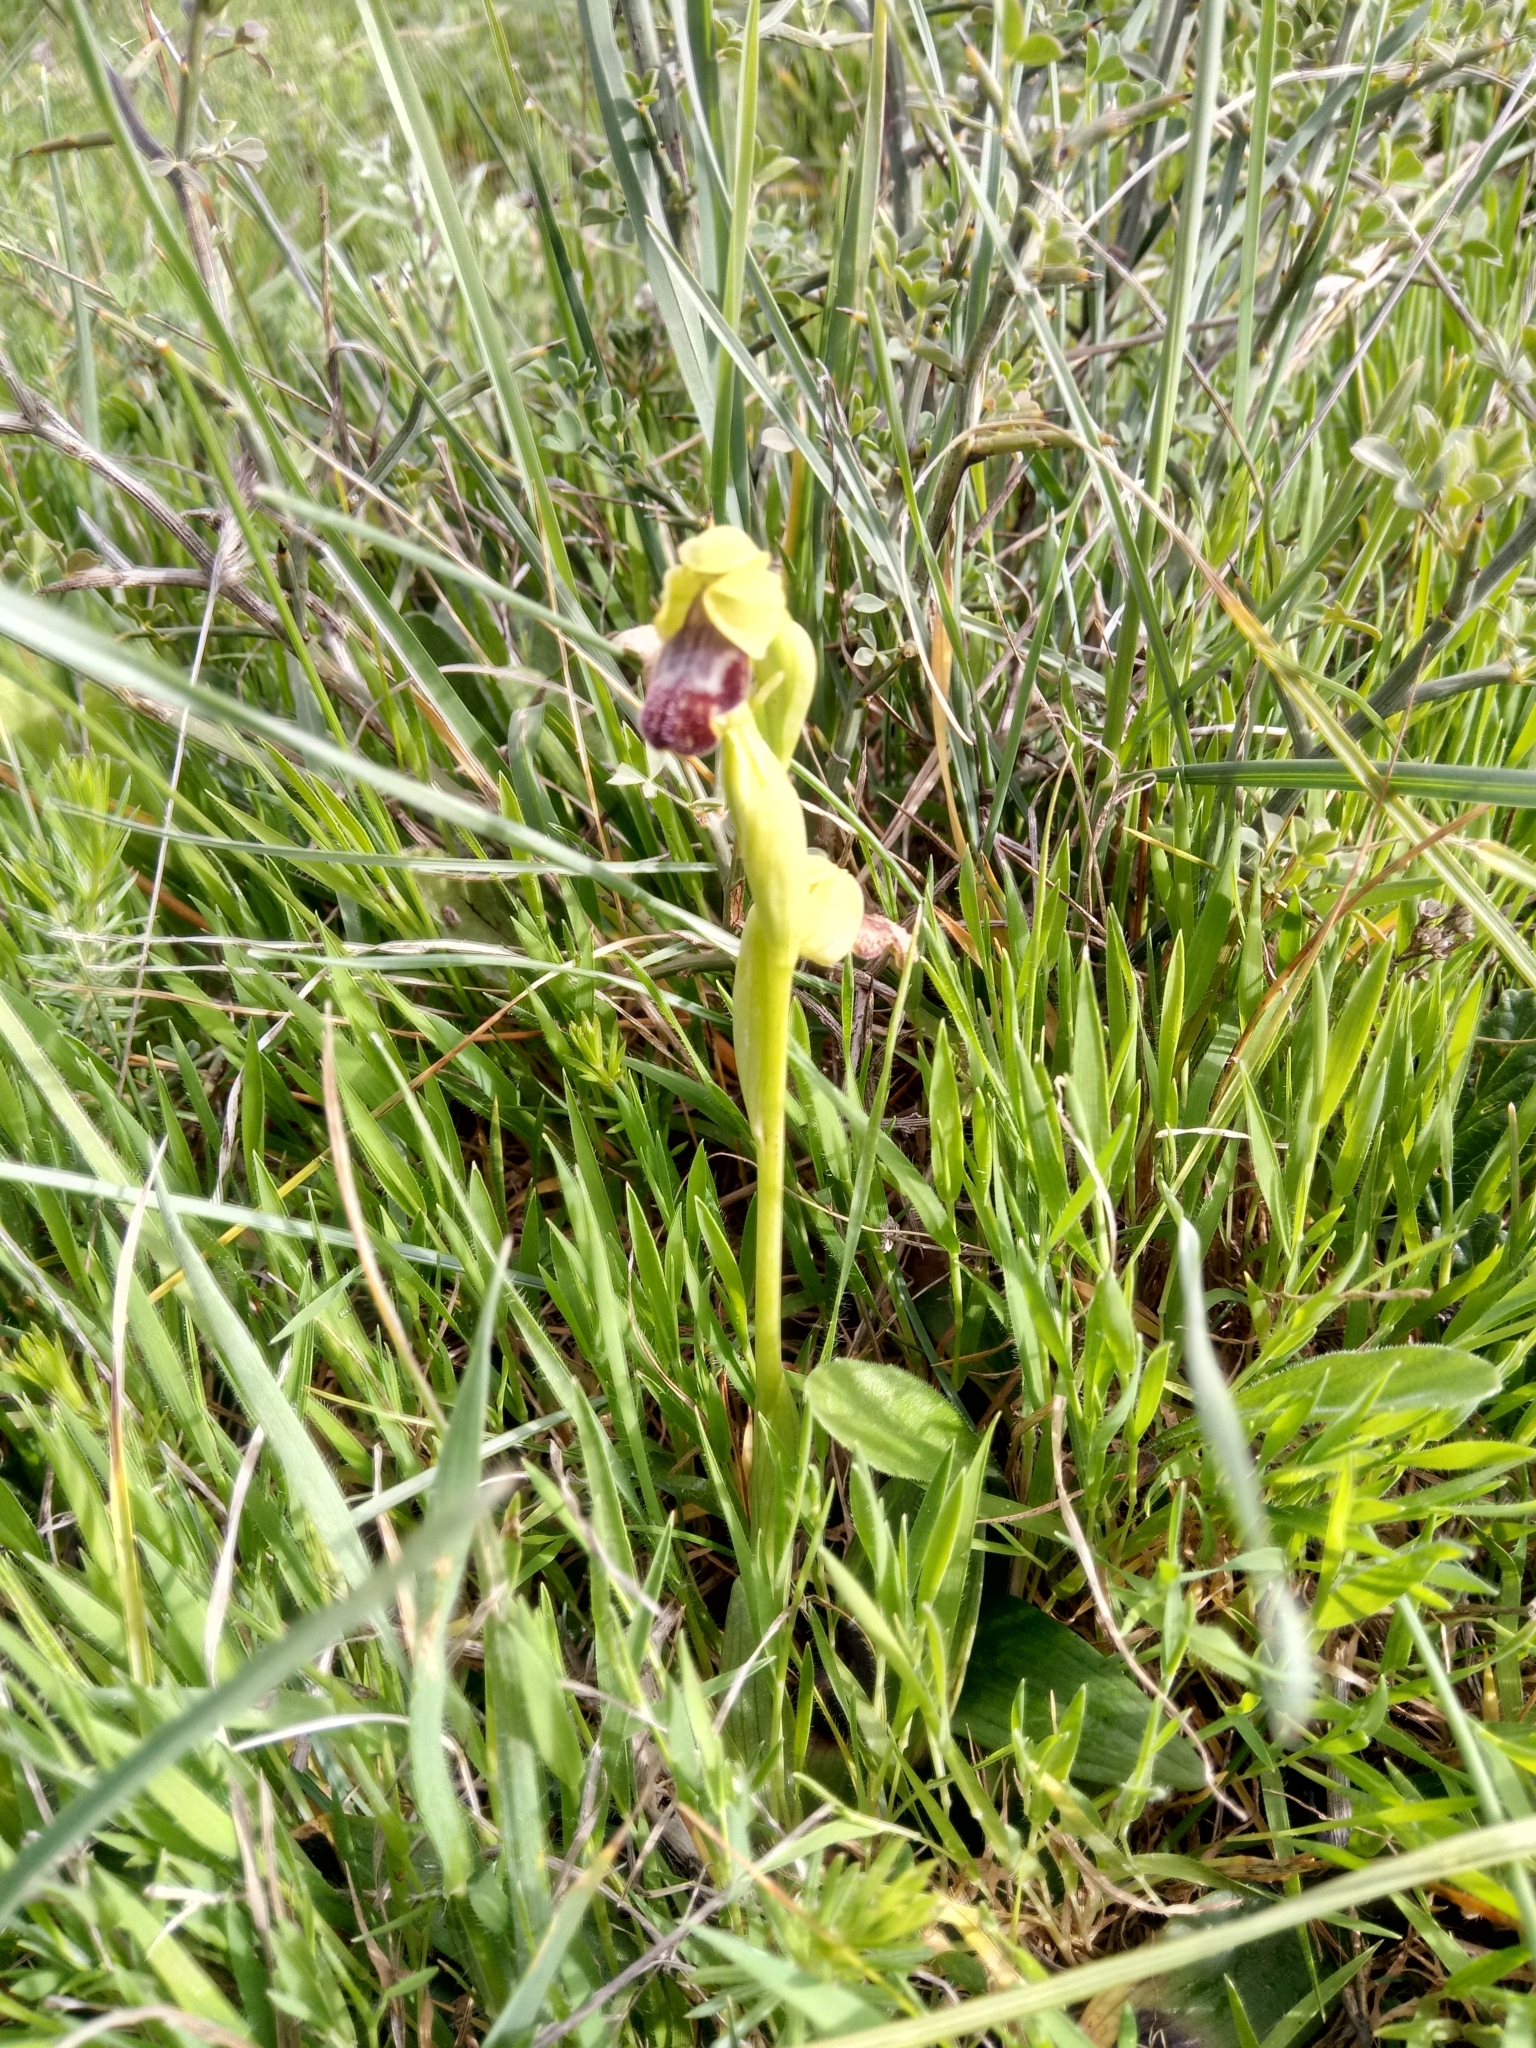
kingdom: Plantae
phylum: Tracheophyta
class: Liliopsida
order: Asparagales
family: Orchidaceae
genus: Ophrys
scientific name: Ophrys fusca
